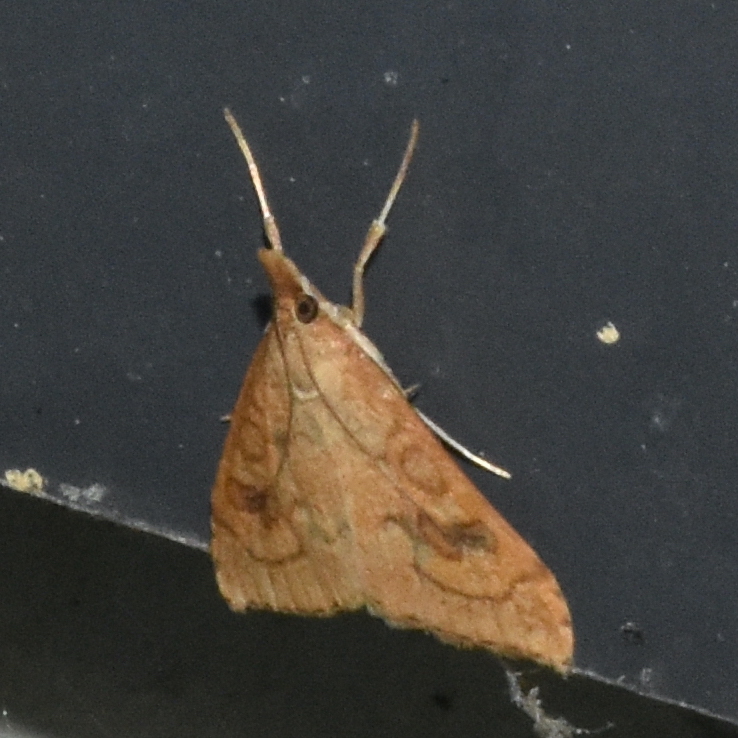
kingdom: Animalia
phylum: Arthropoda
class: Insecta
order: Lepidoptera
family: Crambidae
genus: Udea
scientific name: Udea profundalis
